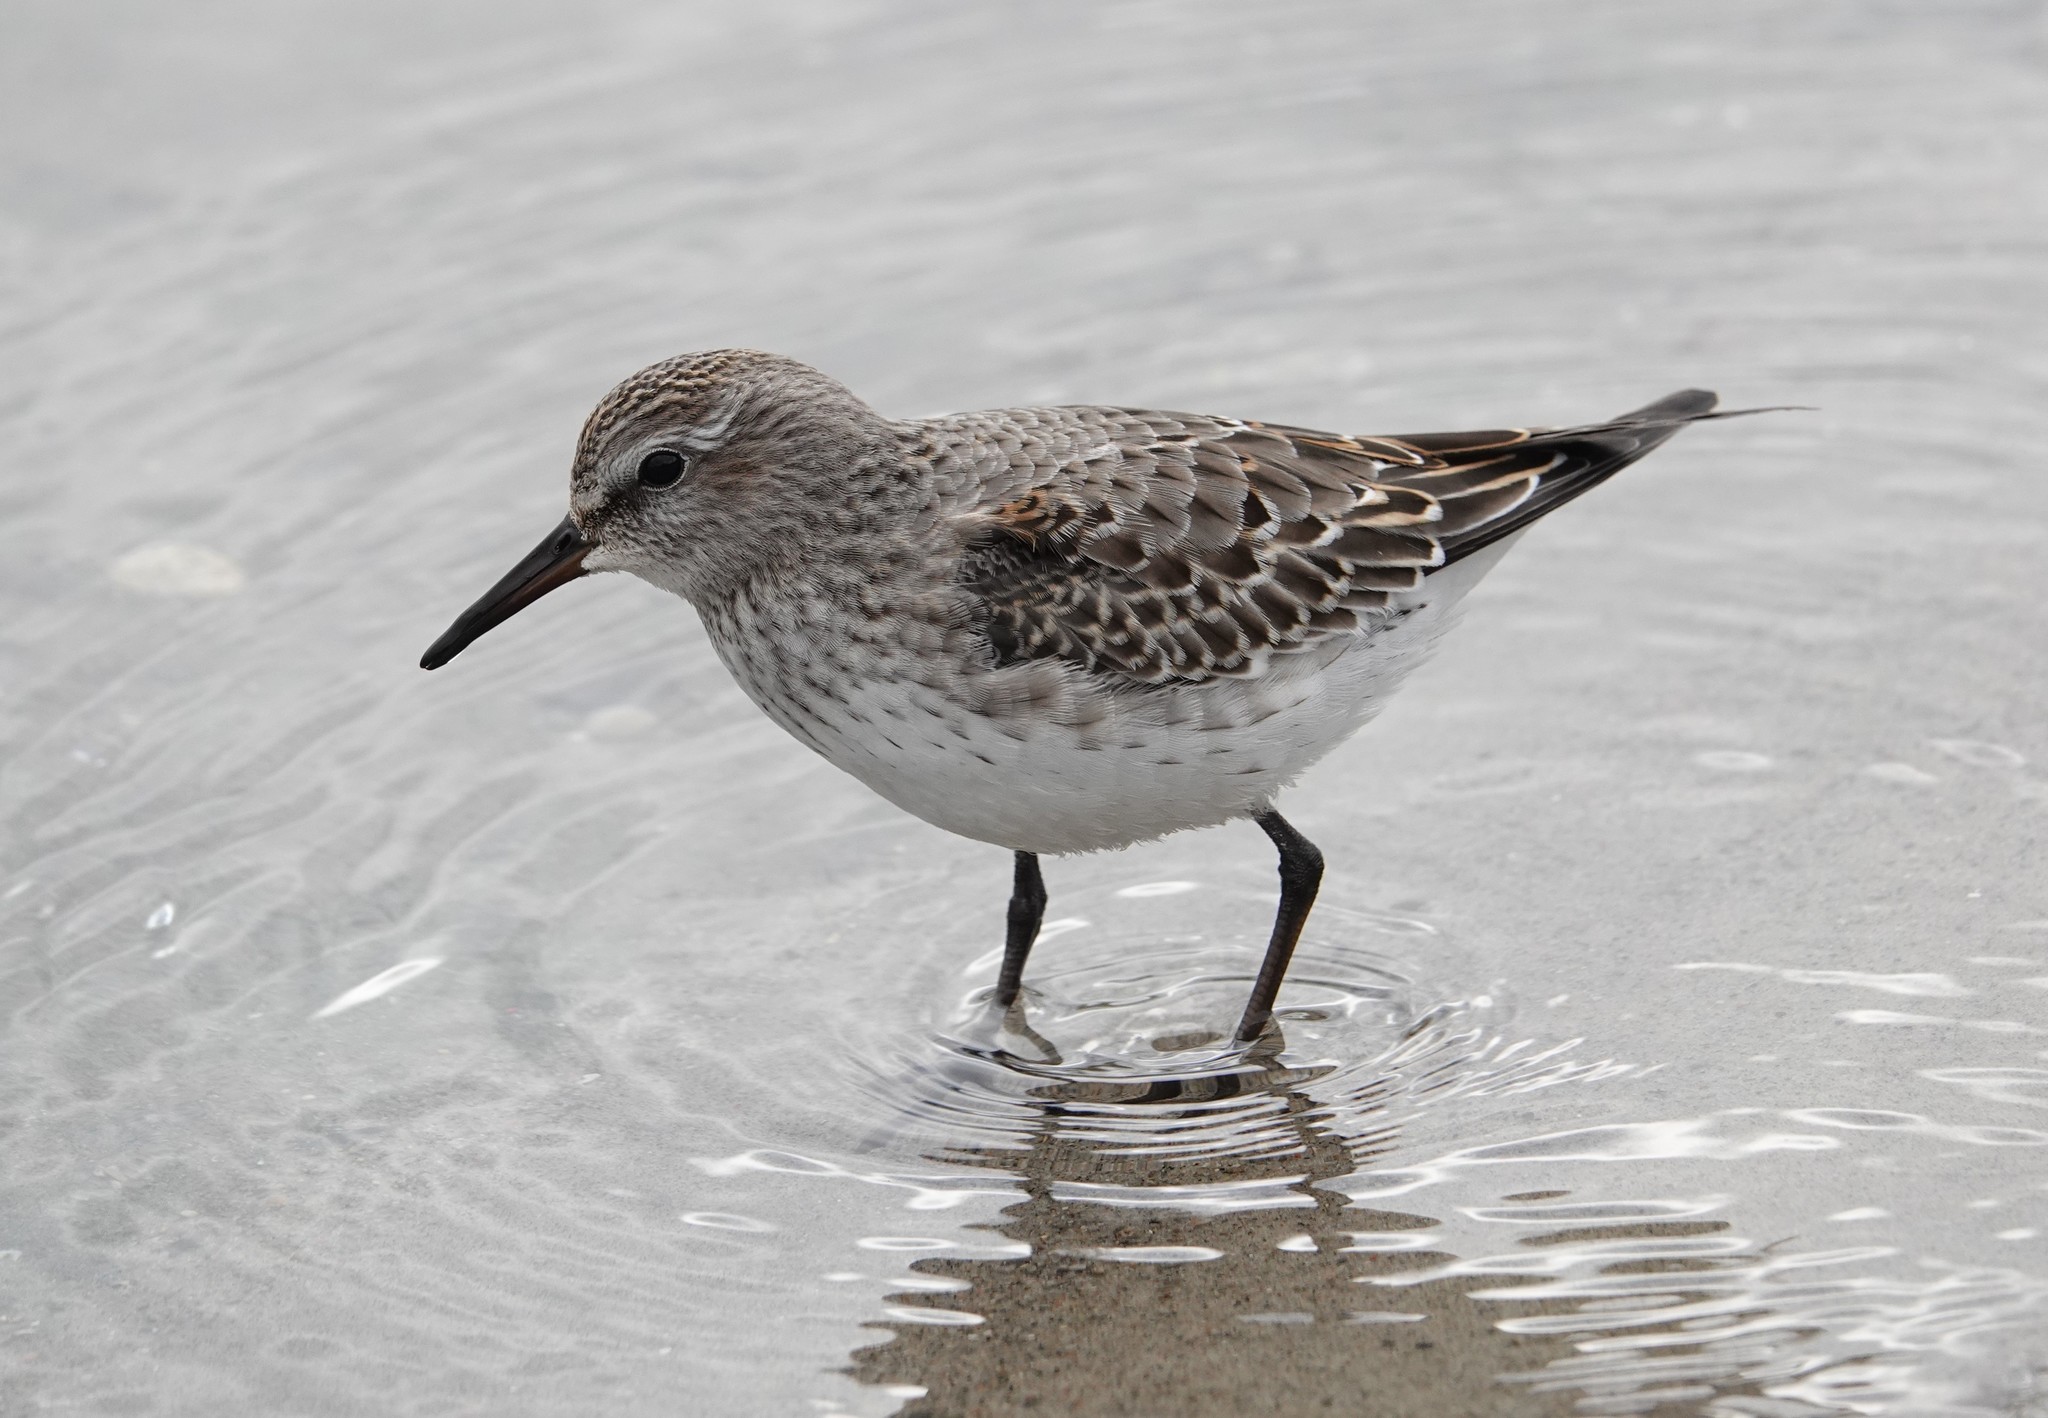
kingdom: Animalia
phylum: Chordata
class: Aves
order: Charadriiformes
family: Scolopacidae
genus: Calidris
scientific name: Calidris fuscicollis
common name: White-rumped sandpiper
